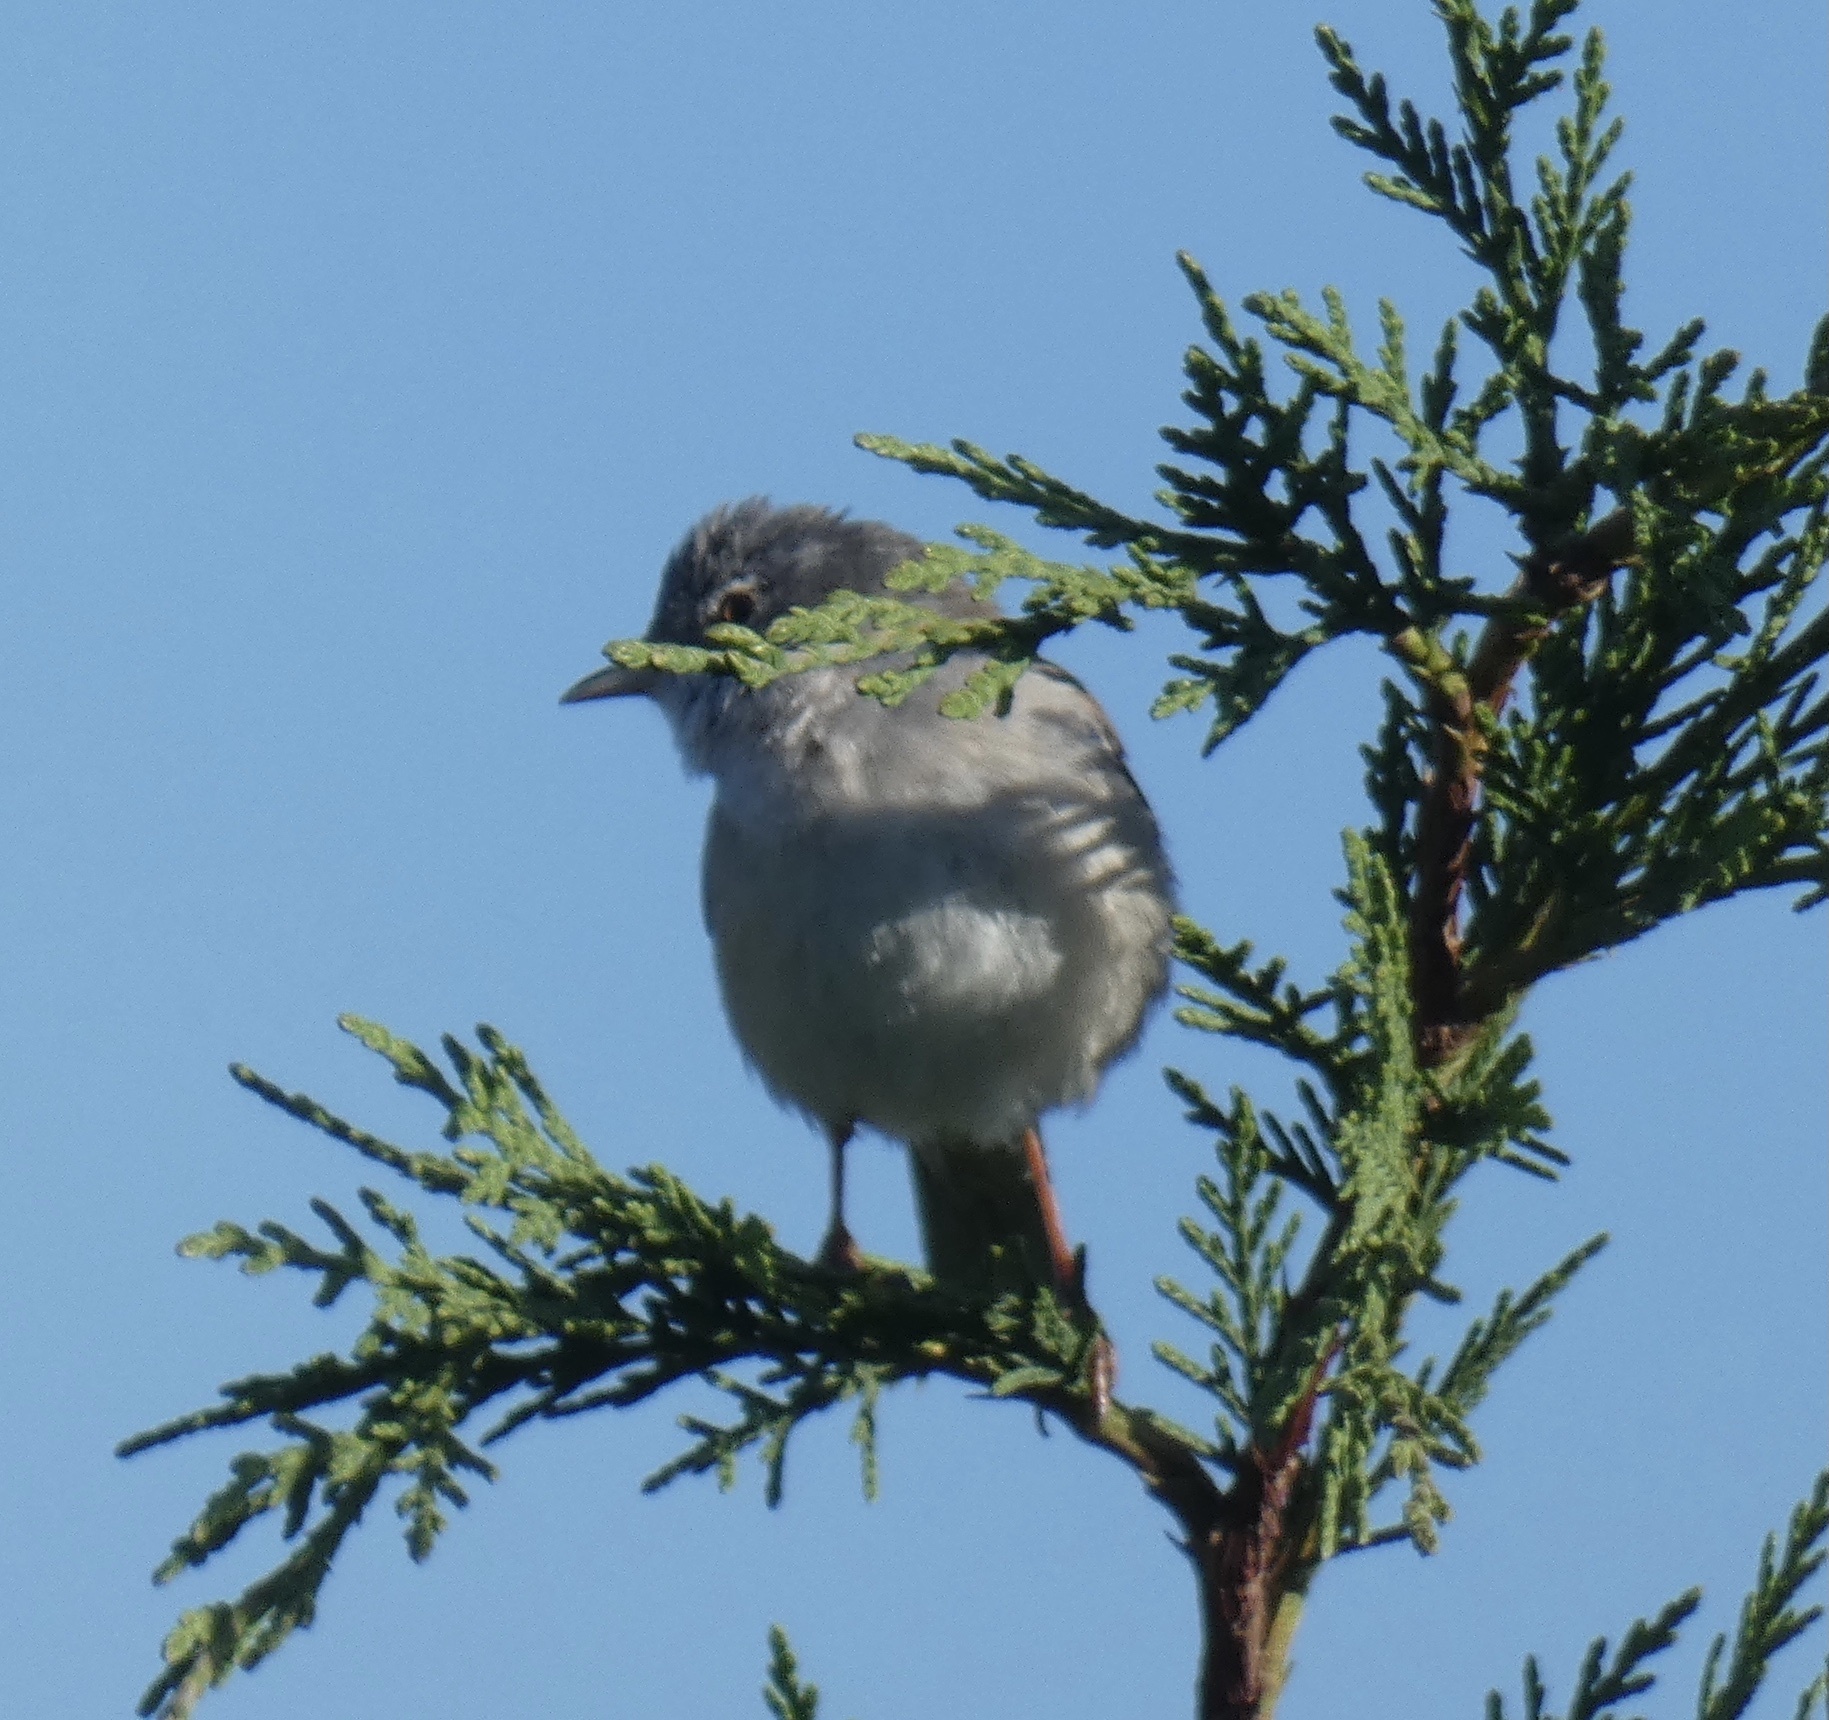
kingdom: Animalia
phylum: Chordata
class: Aves
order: Passeriformes
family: Sylviidae
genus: Sylvia
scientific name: Sylvia communis
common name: Common whitethroat
